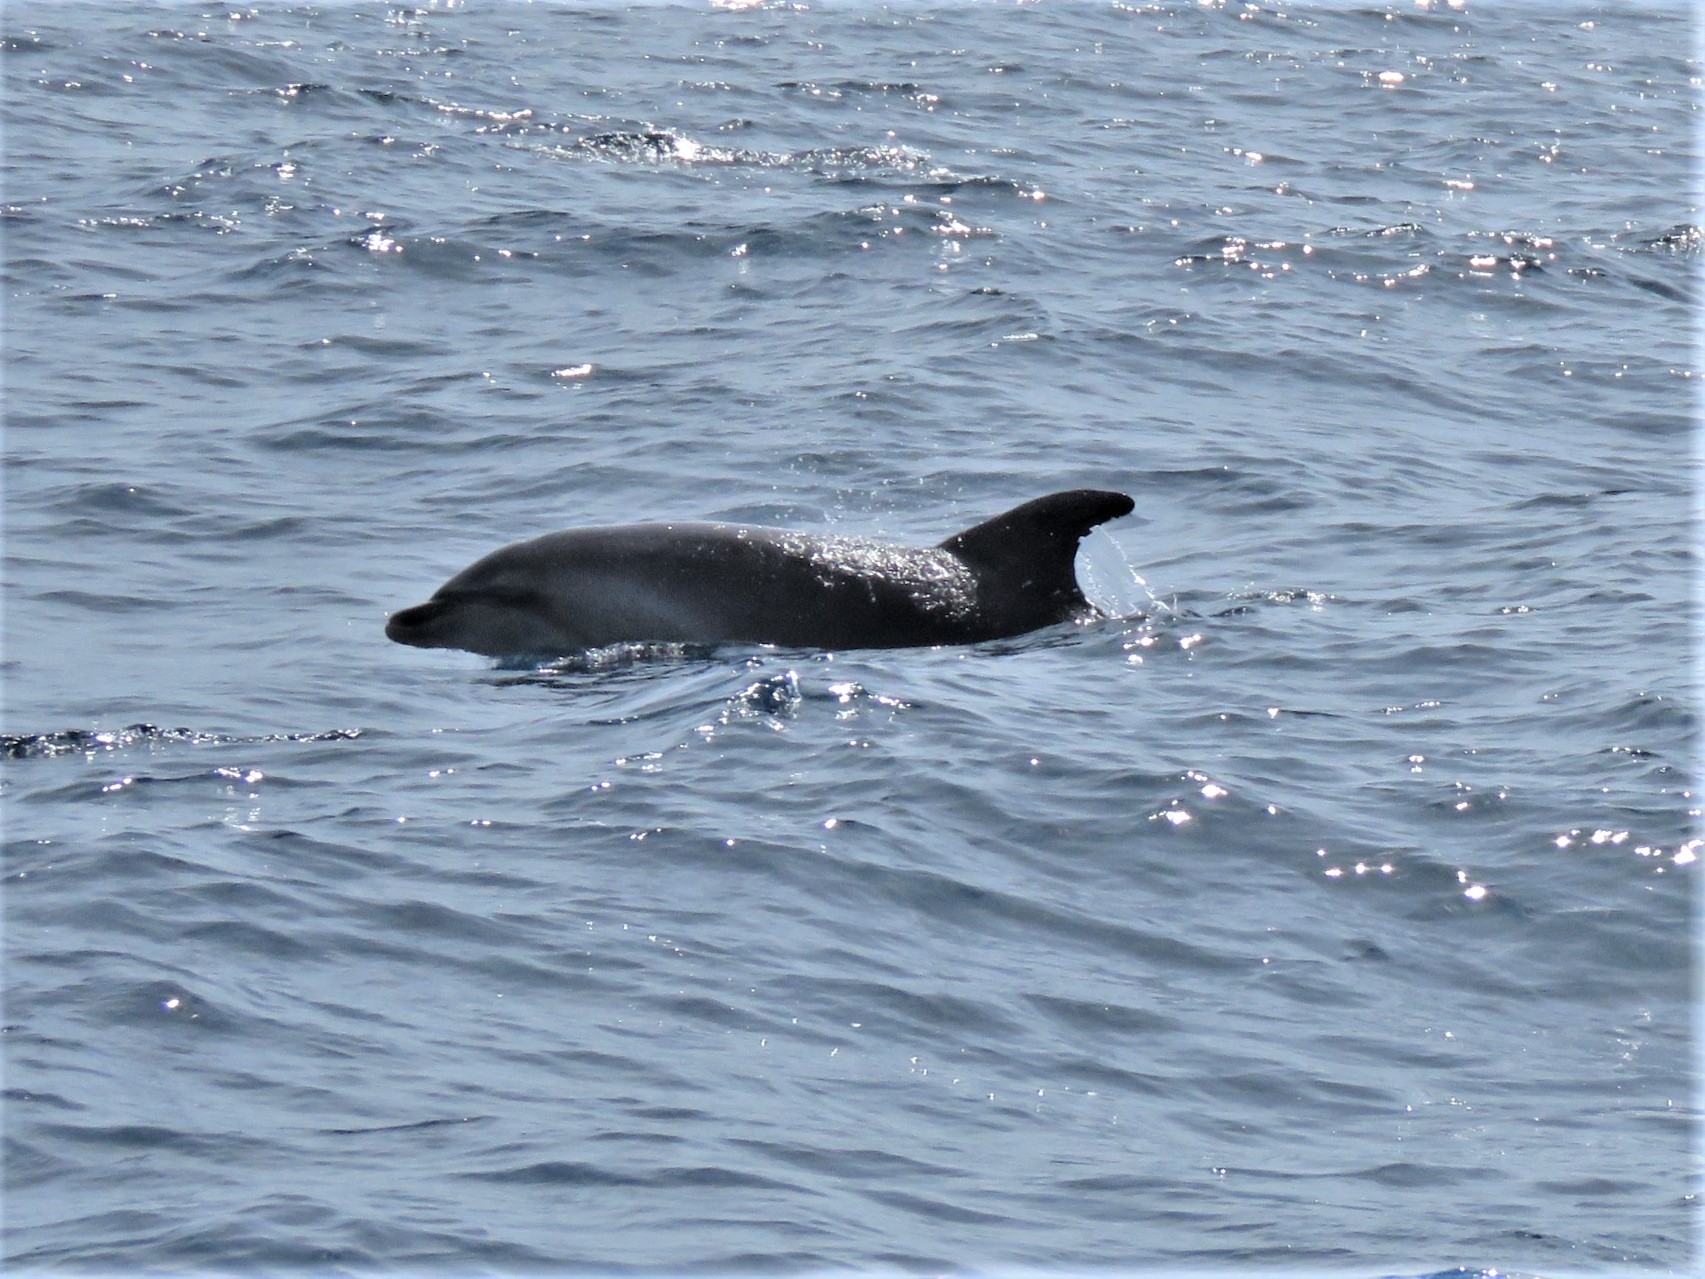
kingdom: Animalia
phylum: Chordata
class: Mammalia
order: Cetacea
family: Delphinidae
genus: Tursiops
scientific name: Tursiops truncatus
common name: Bottlenose dolphin
